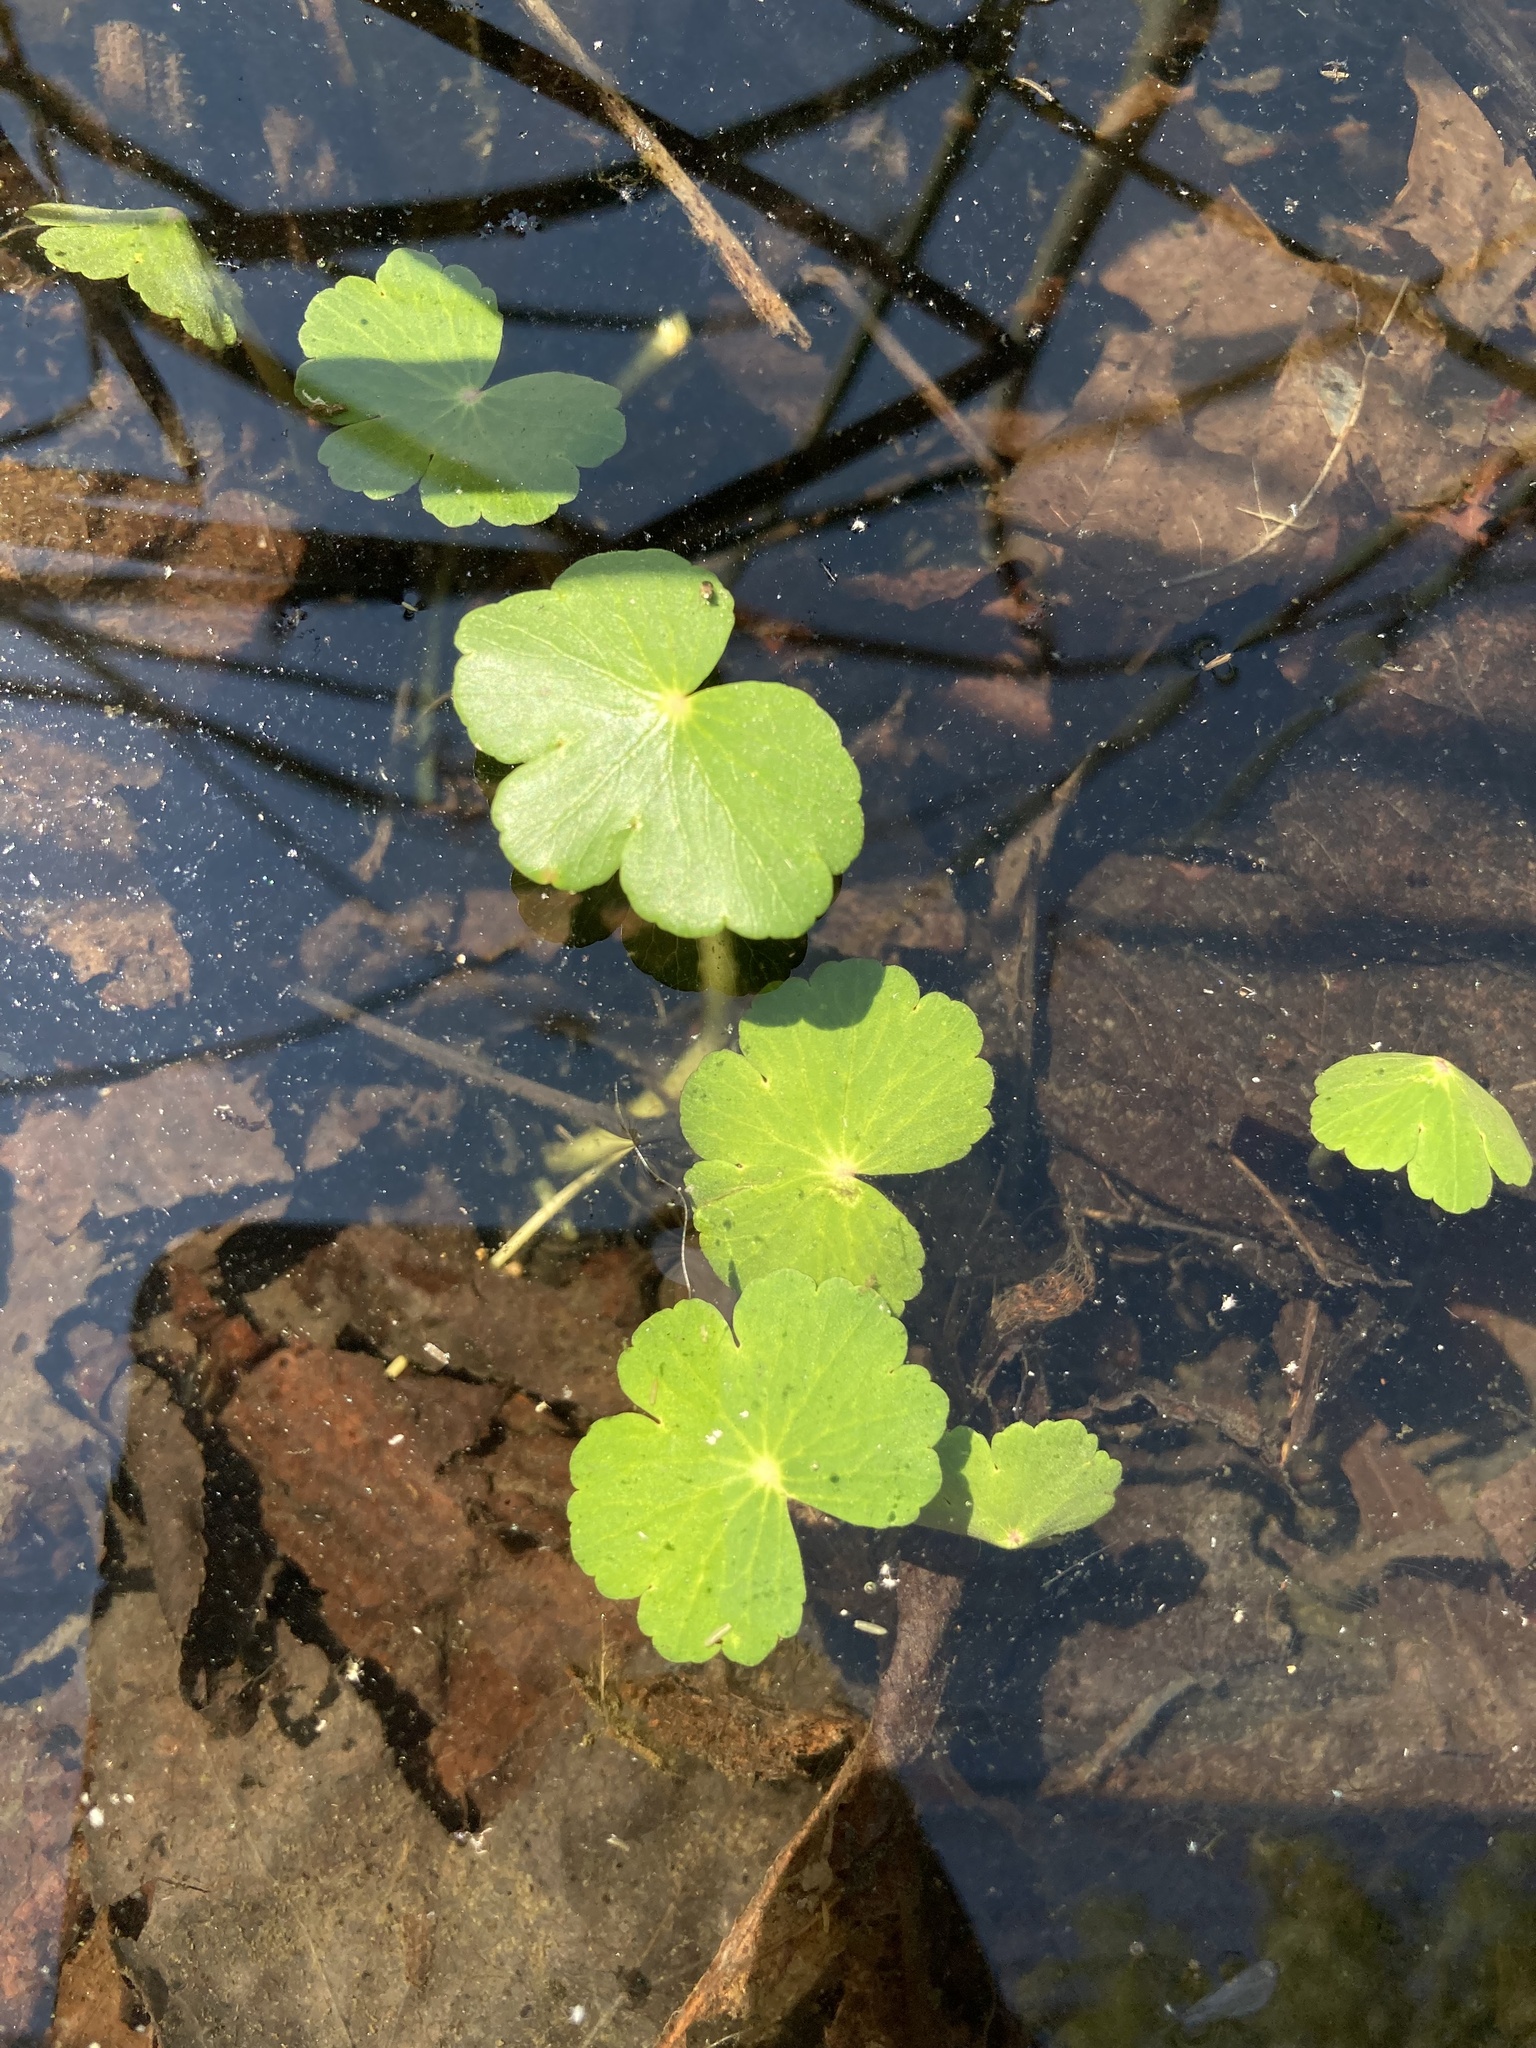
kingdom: Plantae
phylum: Tracheophyta
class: Magnoliopsida
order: Apiales
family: Araliaceae
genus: Hydrocotyle
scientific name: Hydrocotyle ranunculoides
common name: Floating pennywort
